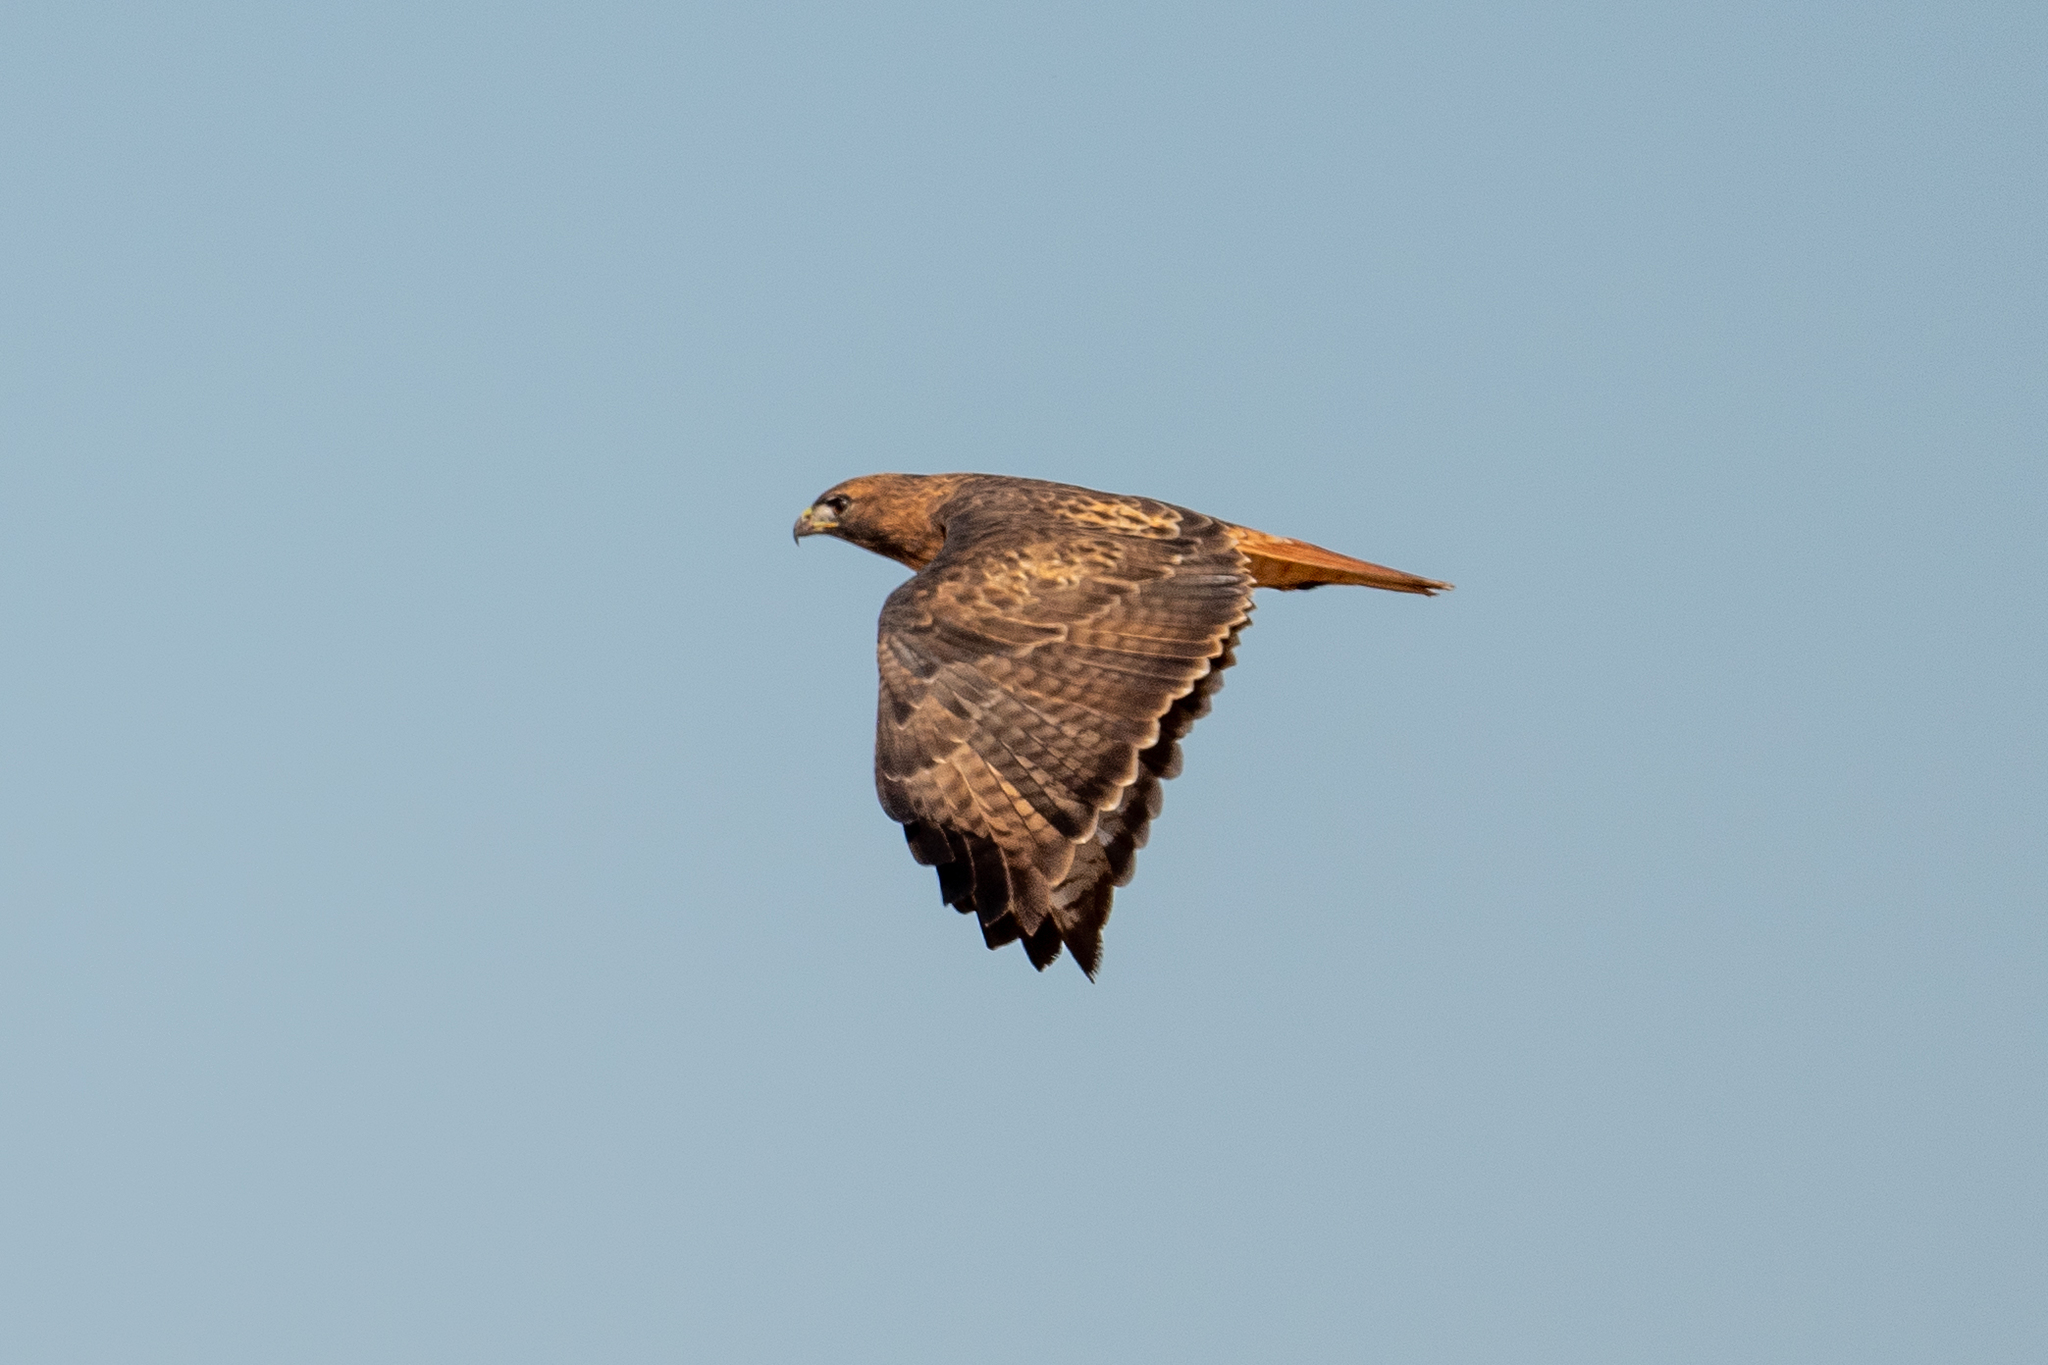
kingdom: Animalia
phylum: Chordata
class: Aves
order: Accipitriformes
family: Accipitridae
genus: Buteo
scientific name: Buteo jamaicensis
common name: Red-tailed hawk
